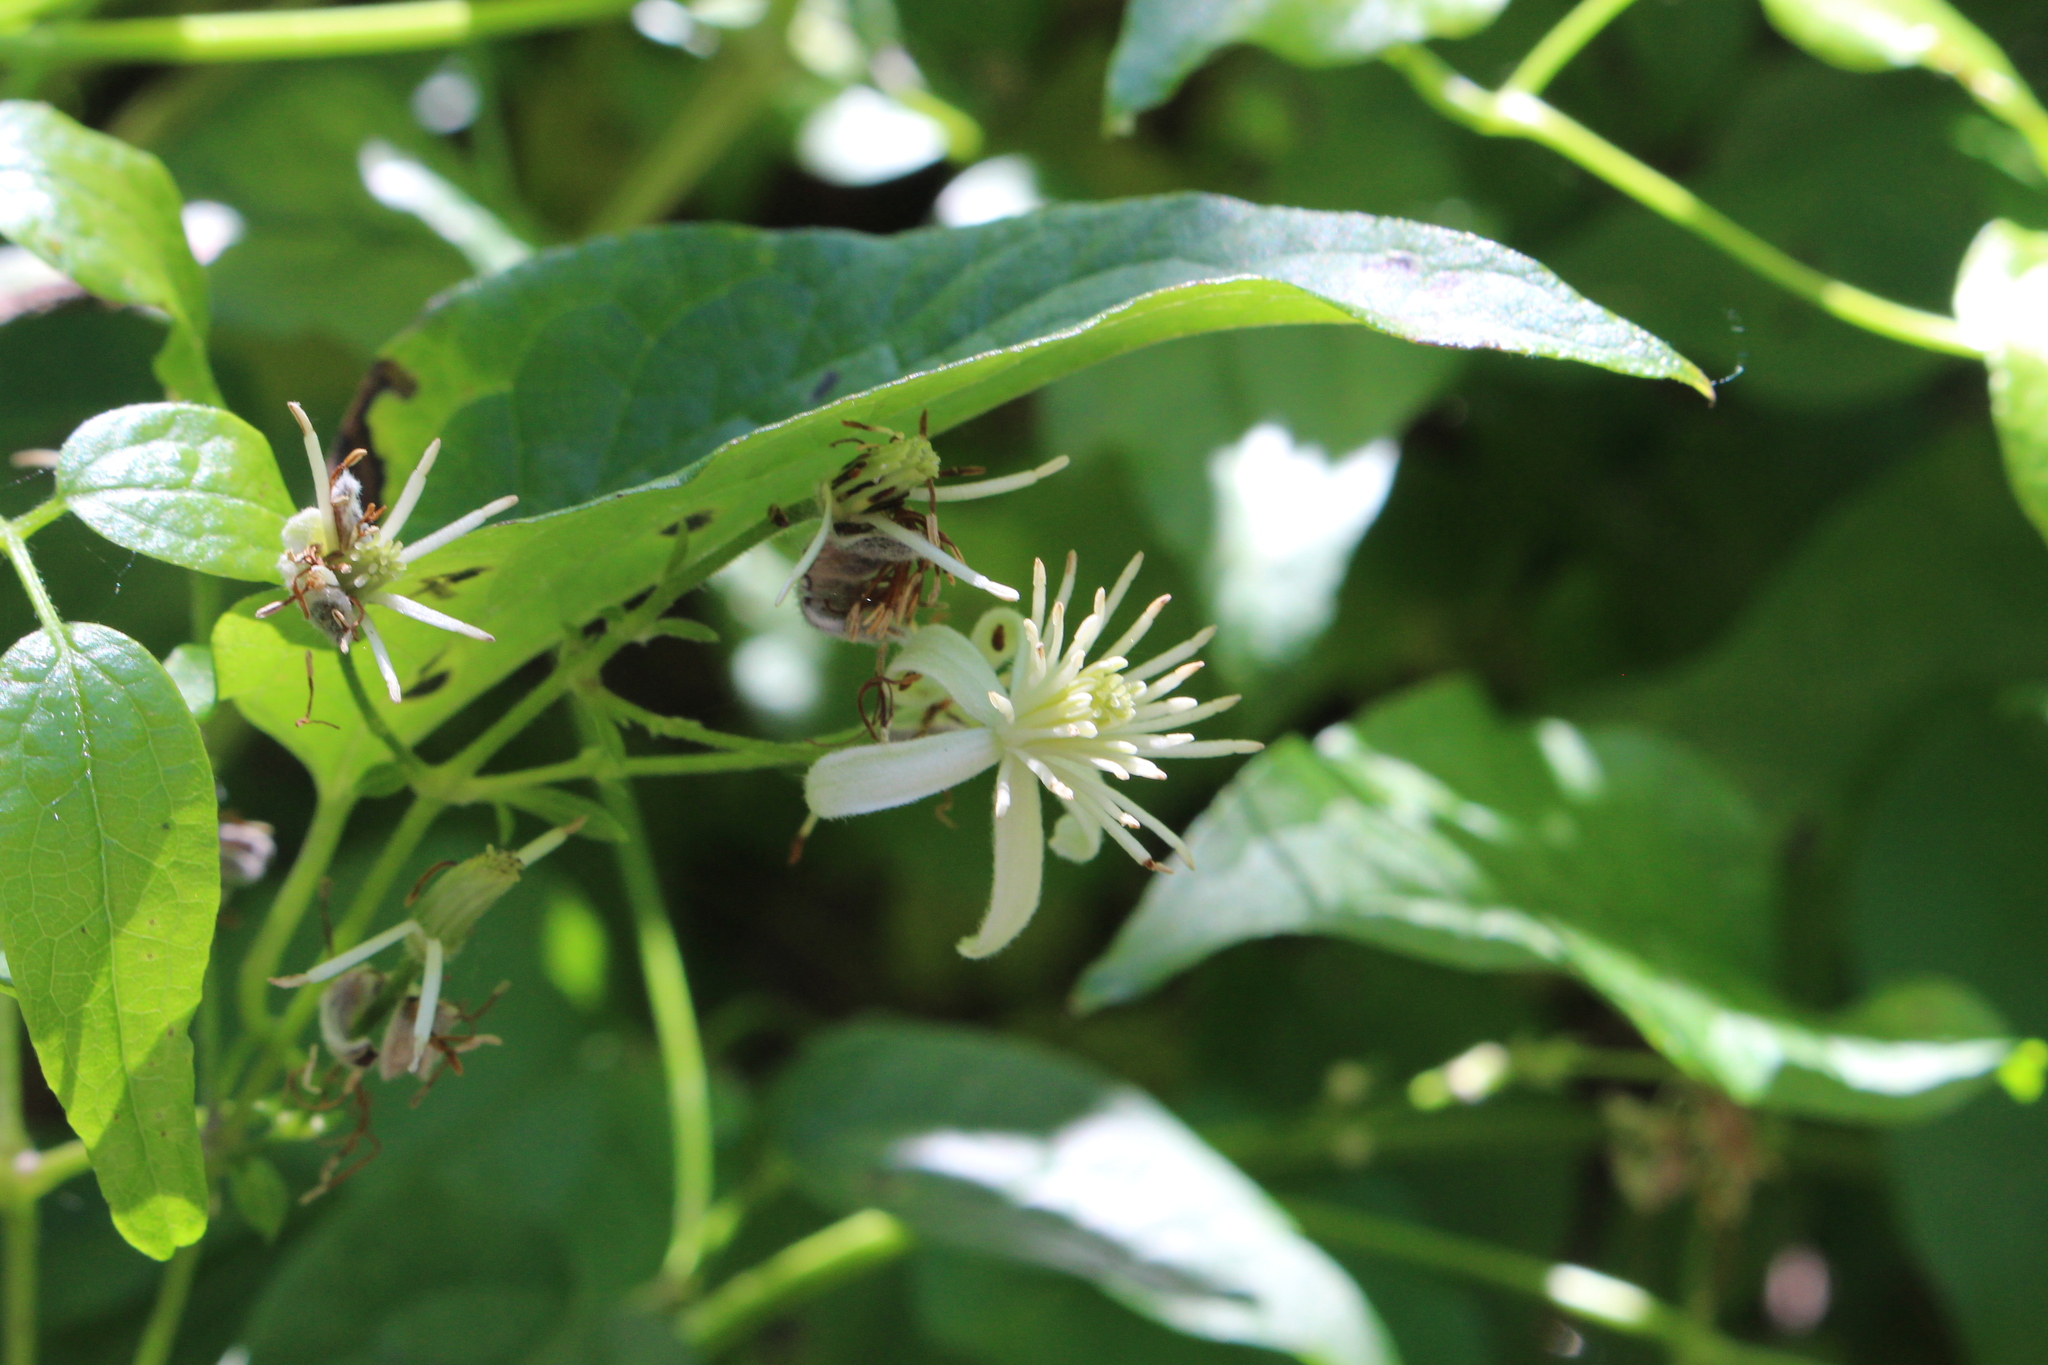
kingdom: Plantae
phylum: Tracheophyta
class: Magnoliopsida
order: Ranunculales
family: Ranunculaceae
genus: Clematis
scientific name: Clematis vitalba
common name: Evergreen clematis
